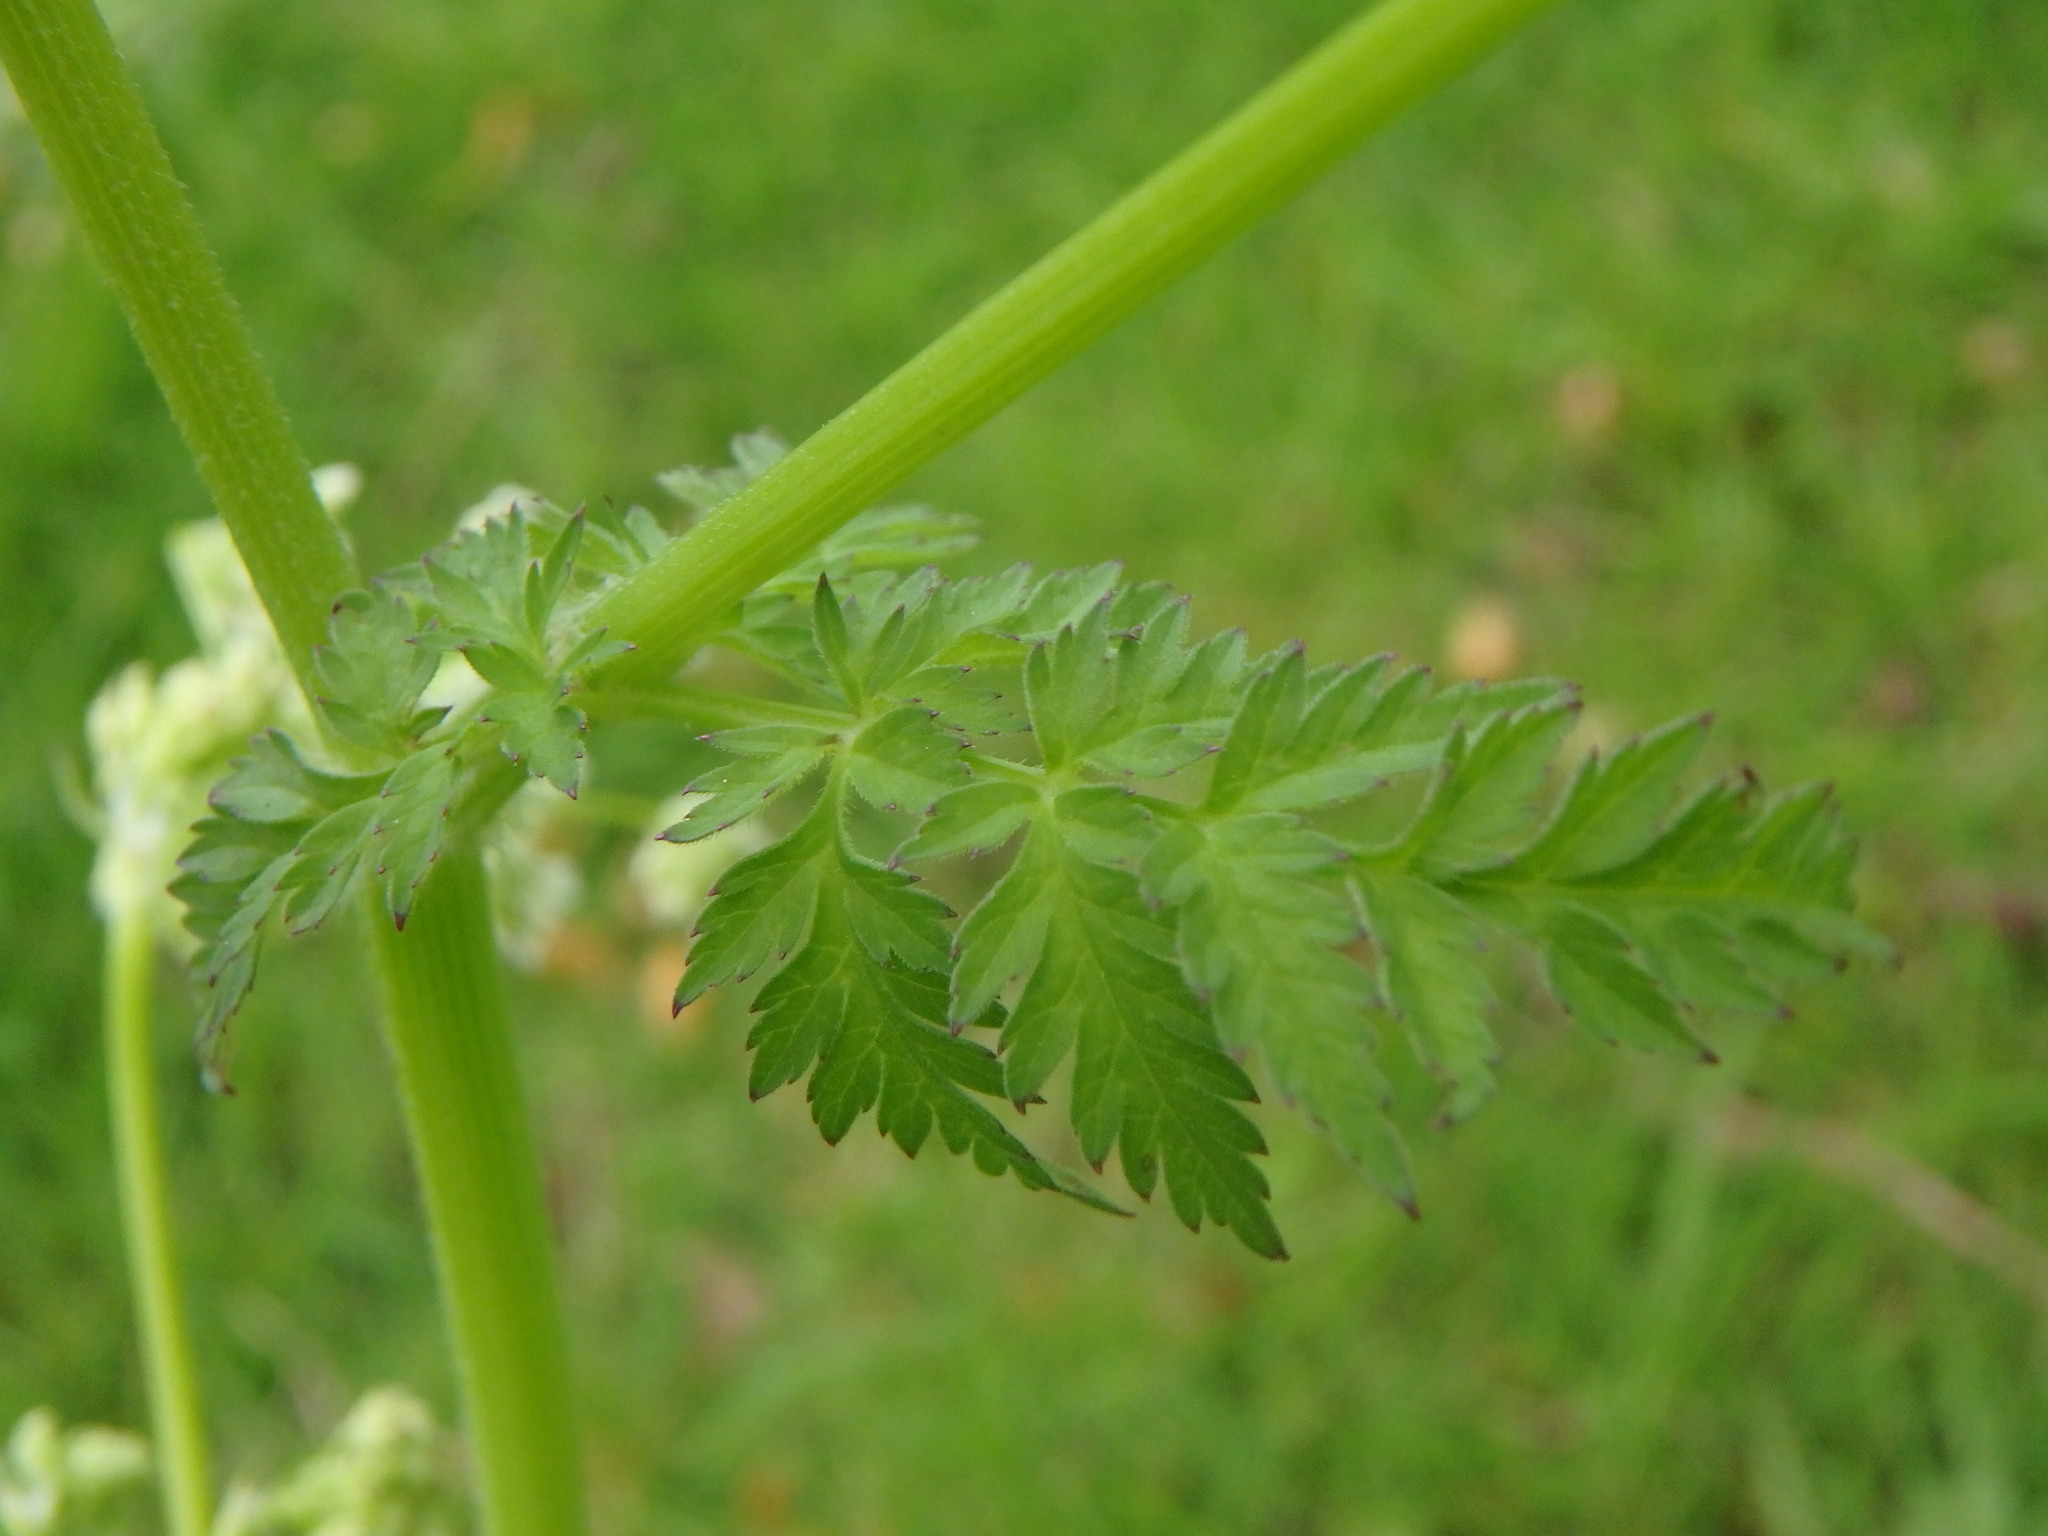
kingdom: Plantae
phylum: Tracheophyta
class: Magnoliopsida
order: Apiales
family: Apiaceae
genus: Anthriscus
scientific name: Anthriscus sylvestris
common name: Cow parsley
